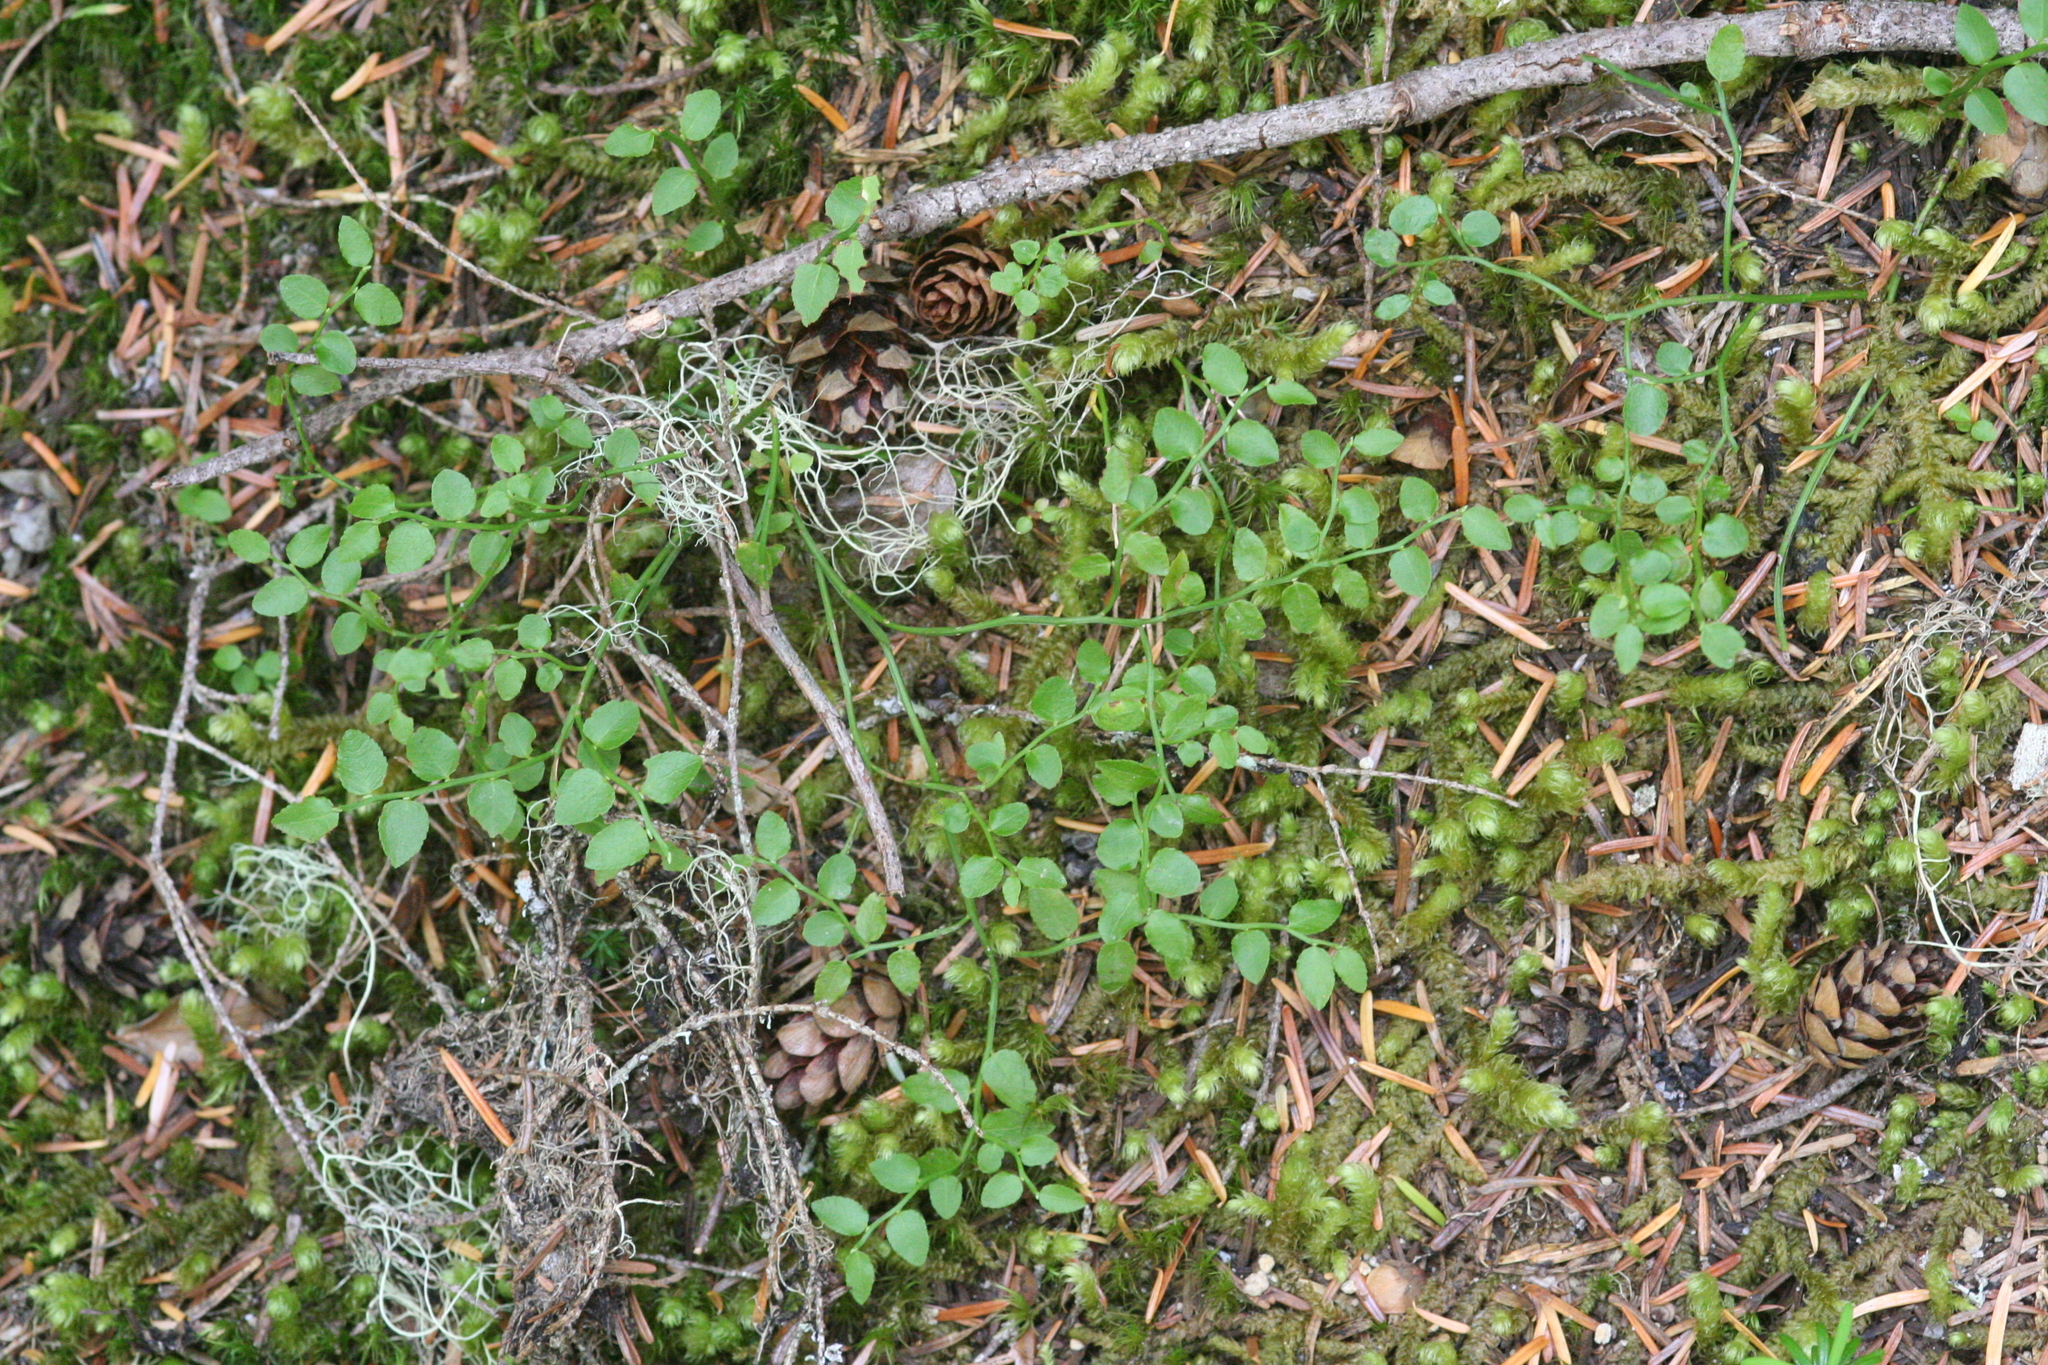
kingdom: Plantae
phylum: Tracheophyta
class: Magnoliopsida
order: Ericales
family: Ericaceae
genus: Vaccinium
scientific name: Vaccinium parvifolium
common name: Red-huckleberry
